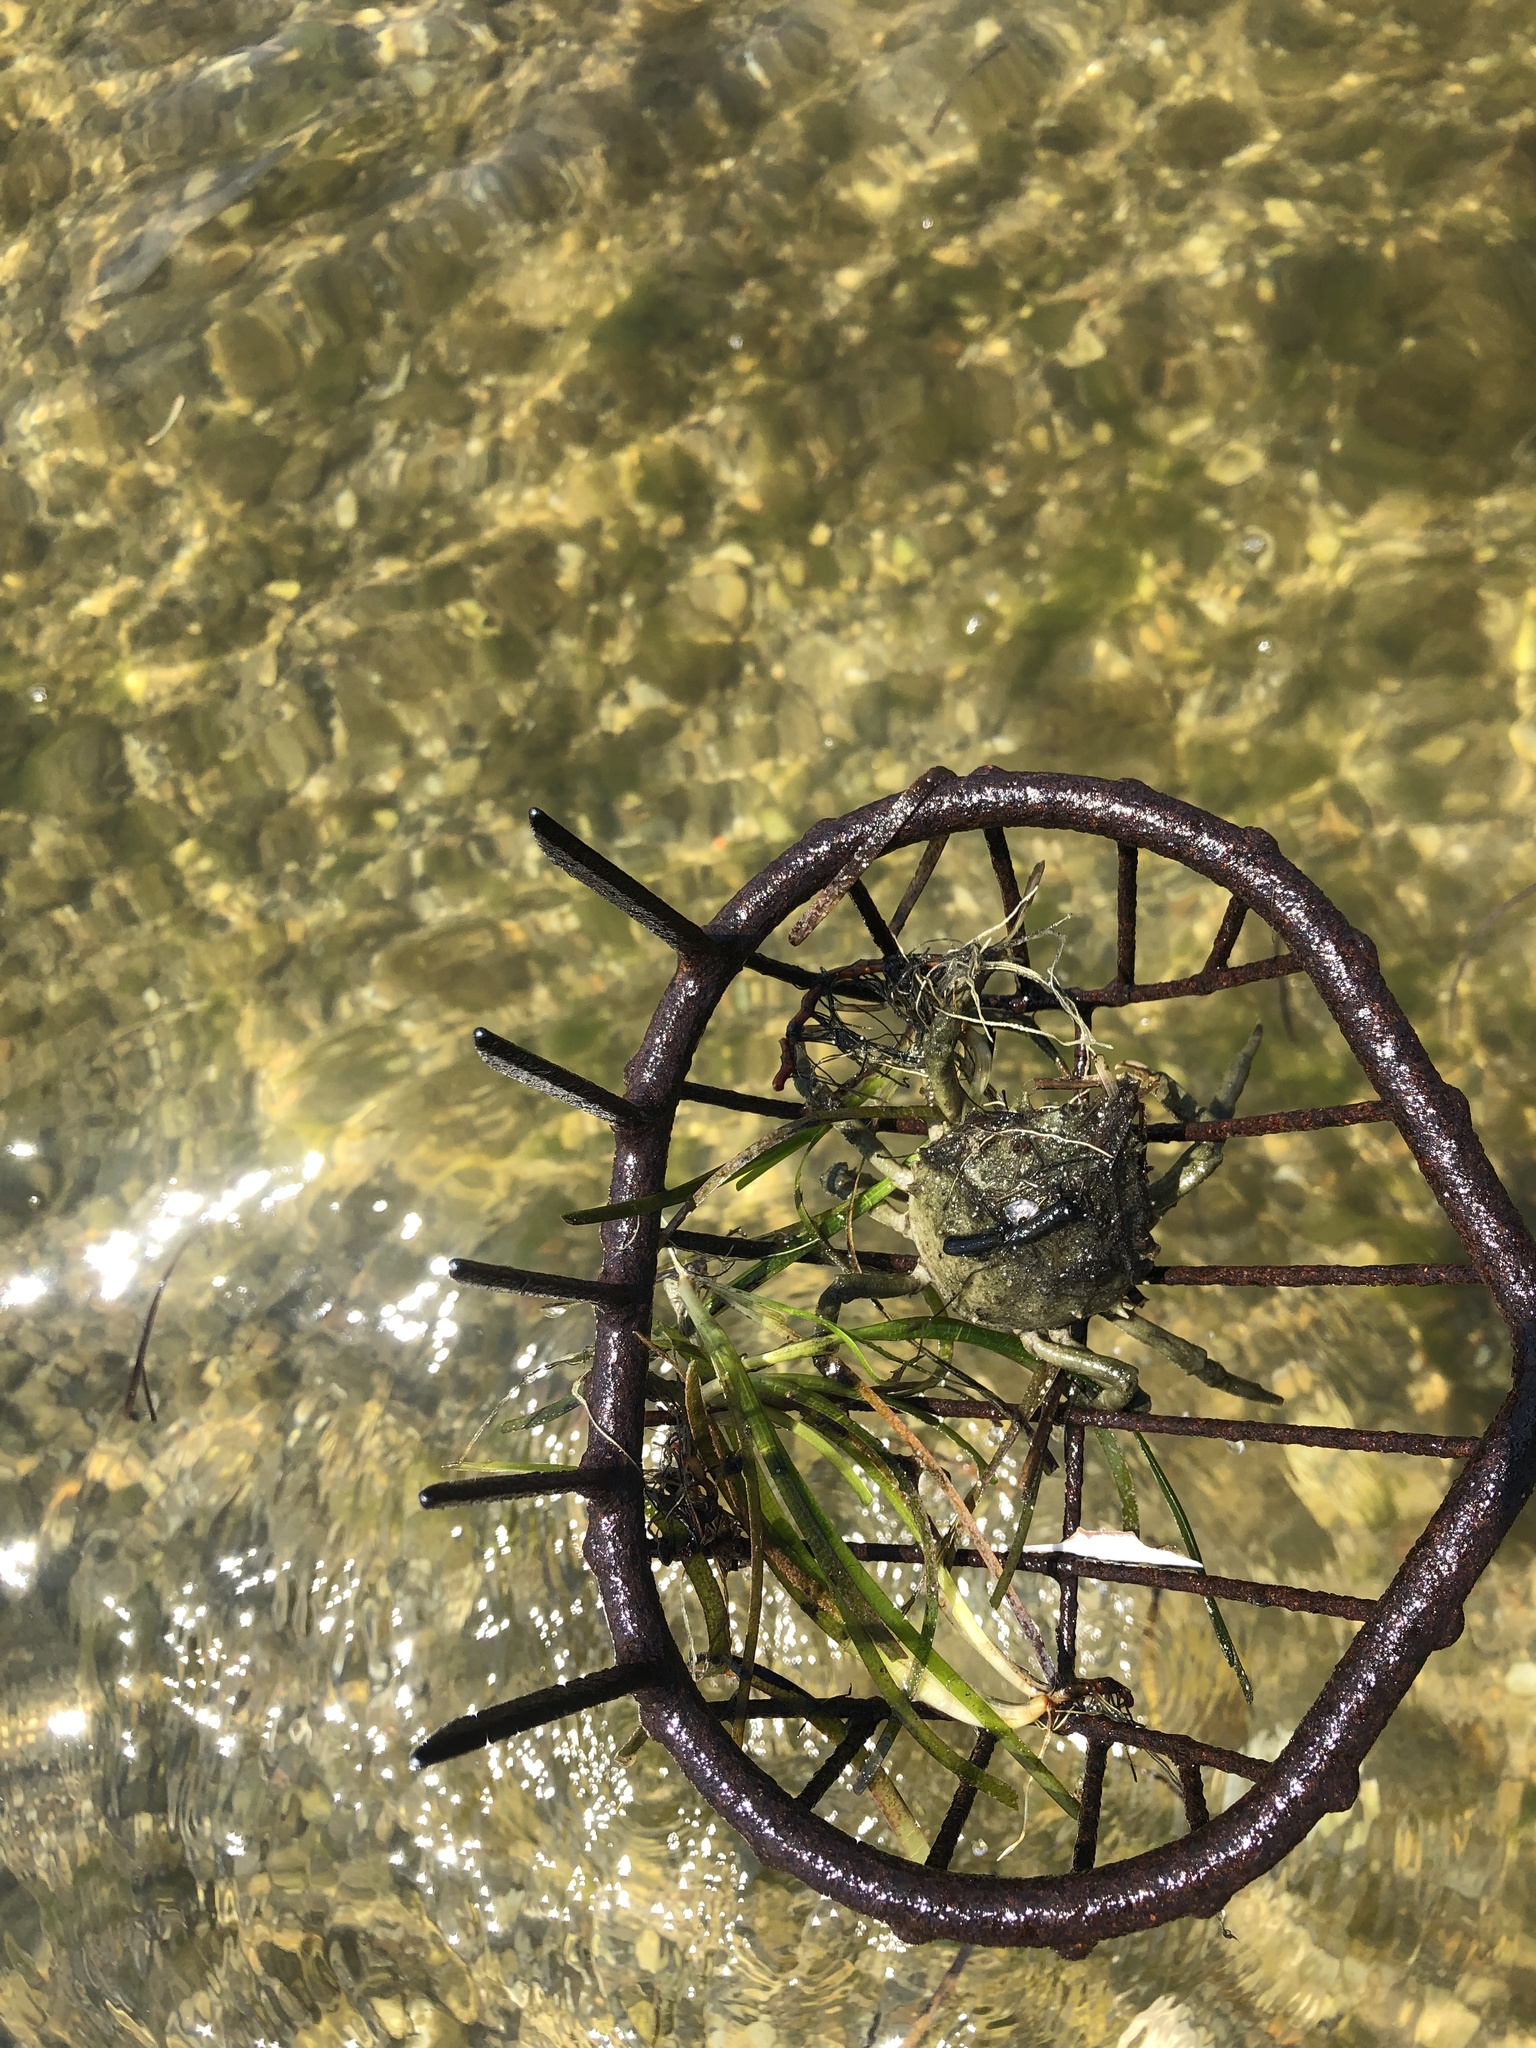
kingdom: Animalia
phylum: Arthropoda
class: Malacostraca
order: Decapoda
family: Epialtidae
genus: Libinia
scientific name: Libinia emarginata
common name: Common spider crab
